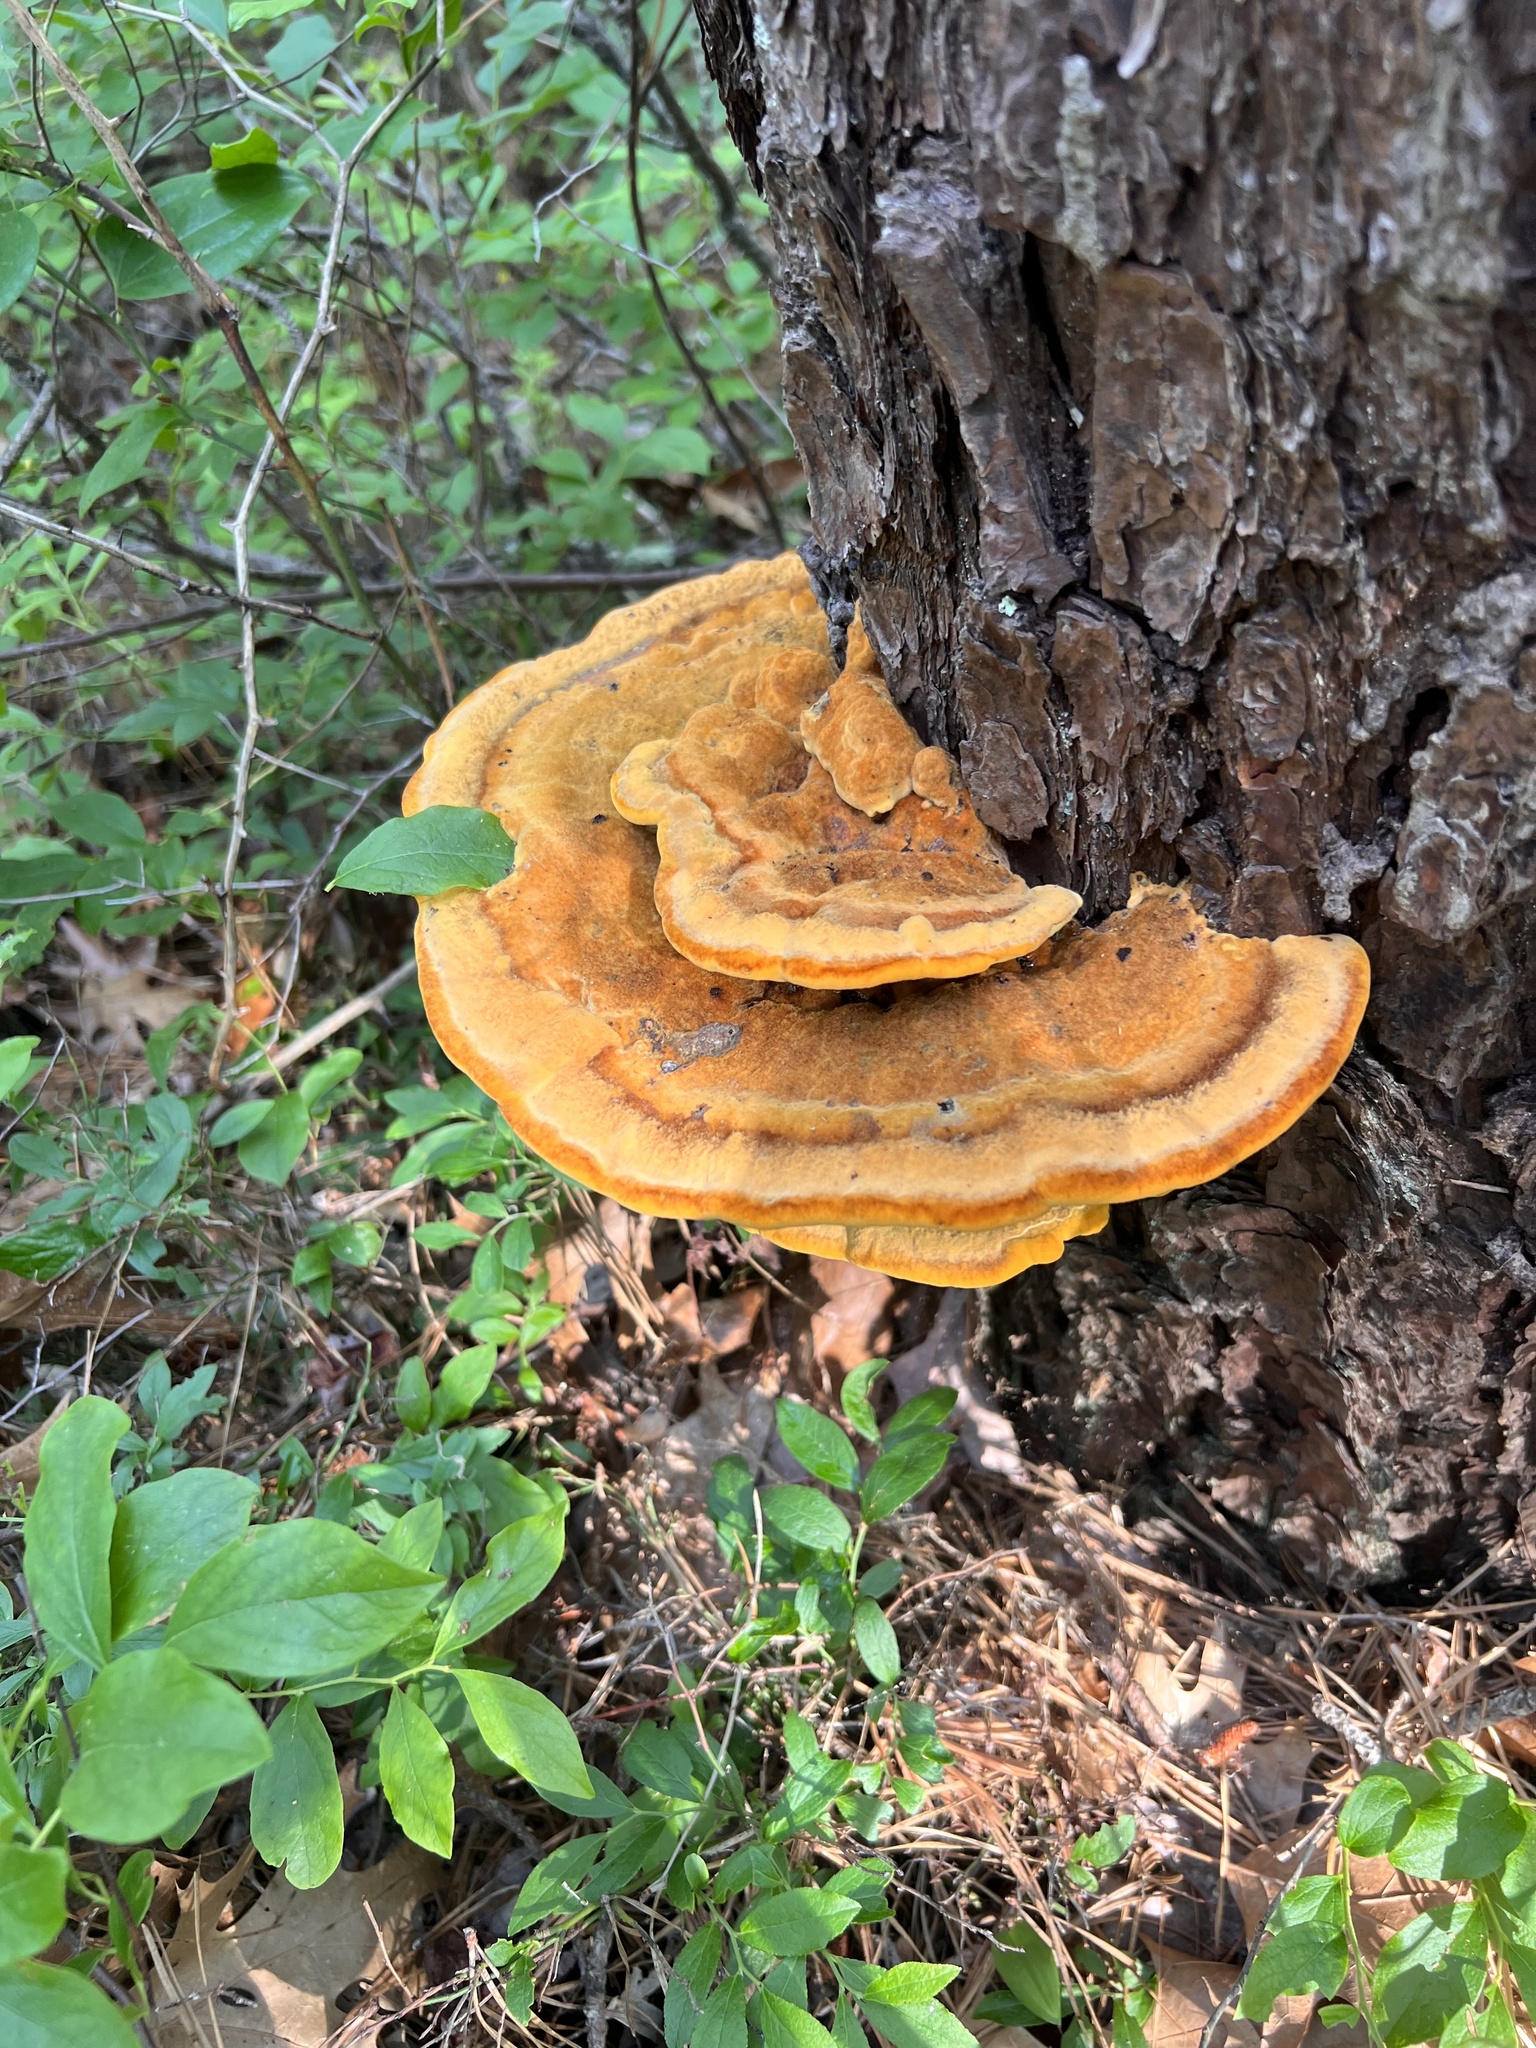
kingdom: Fungi
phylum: Basidiomycota
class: Agaricomycetes
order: Polyporales
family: Laetiporaceae
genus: Phaeolus
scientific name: Phaeolus schweinitzii
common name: Dyer's mazegill
